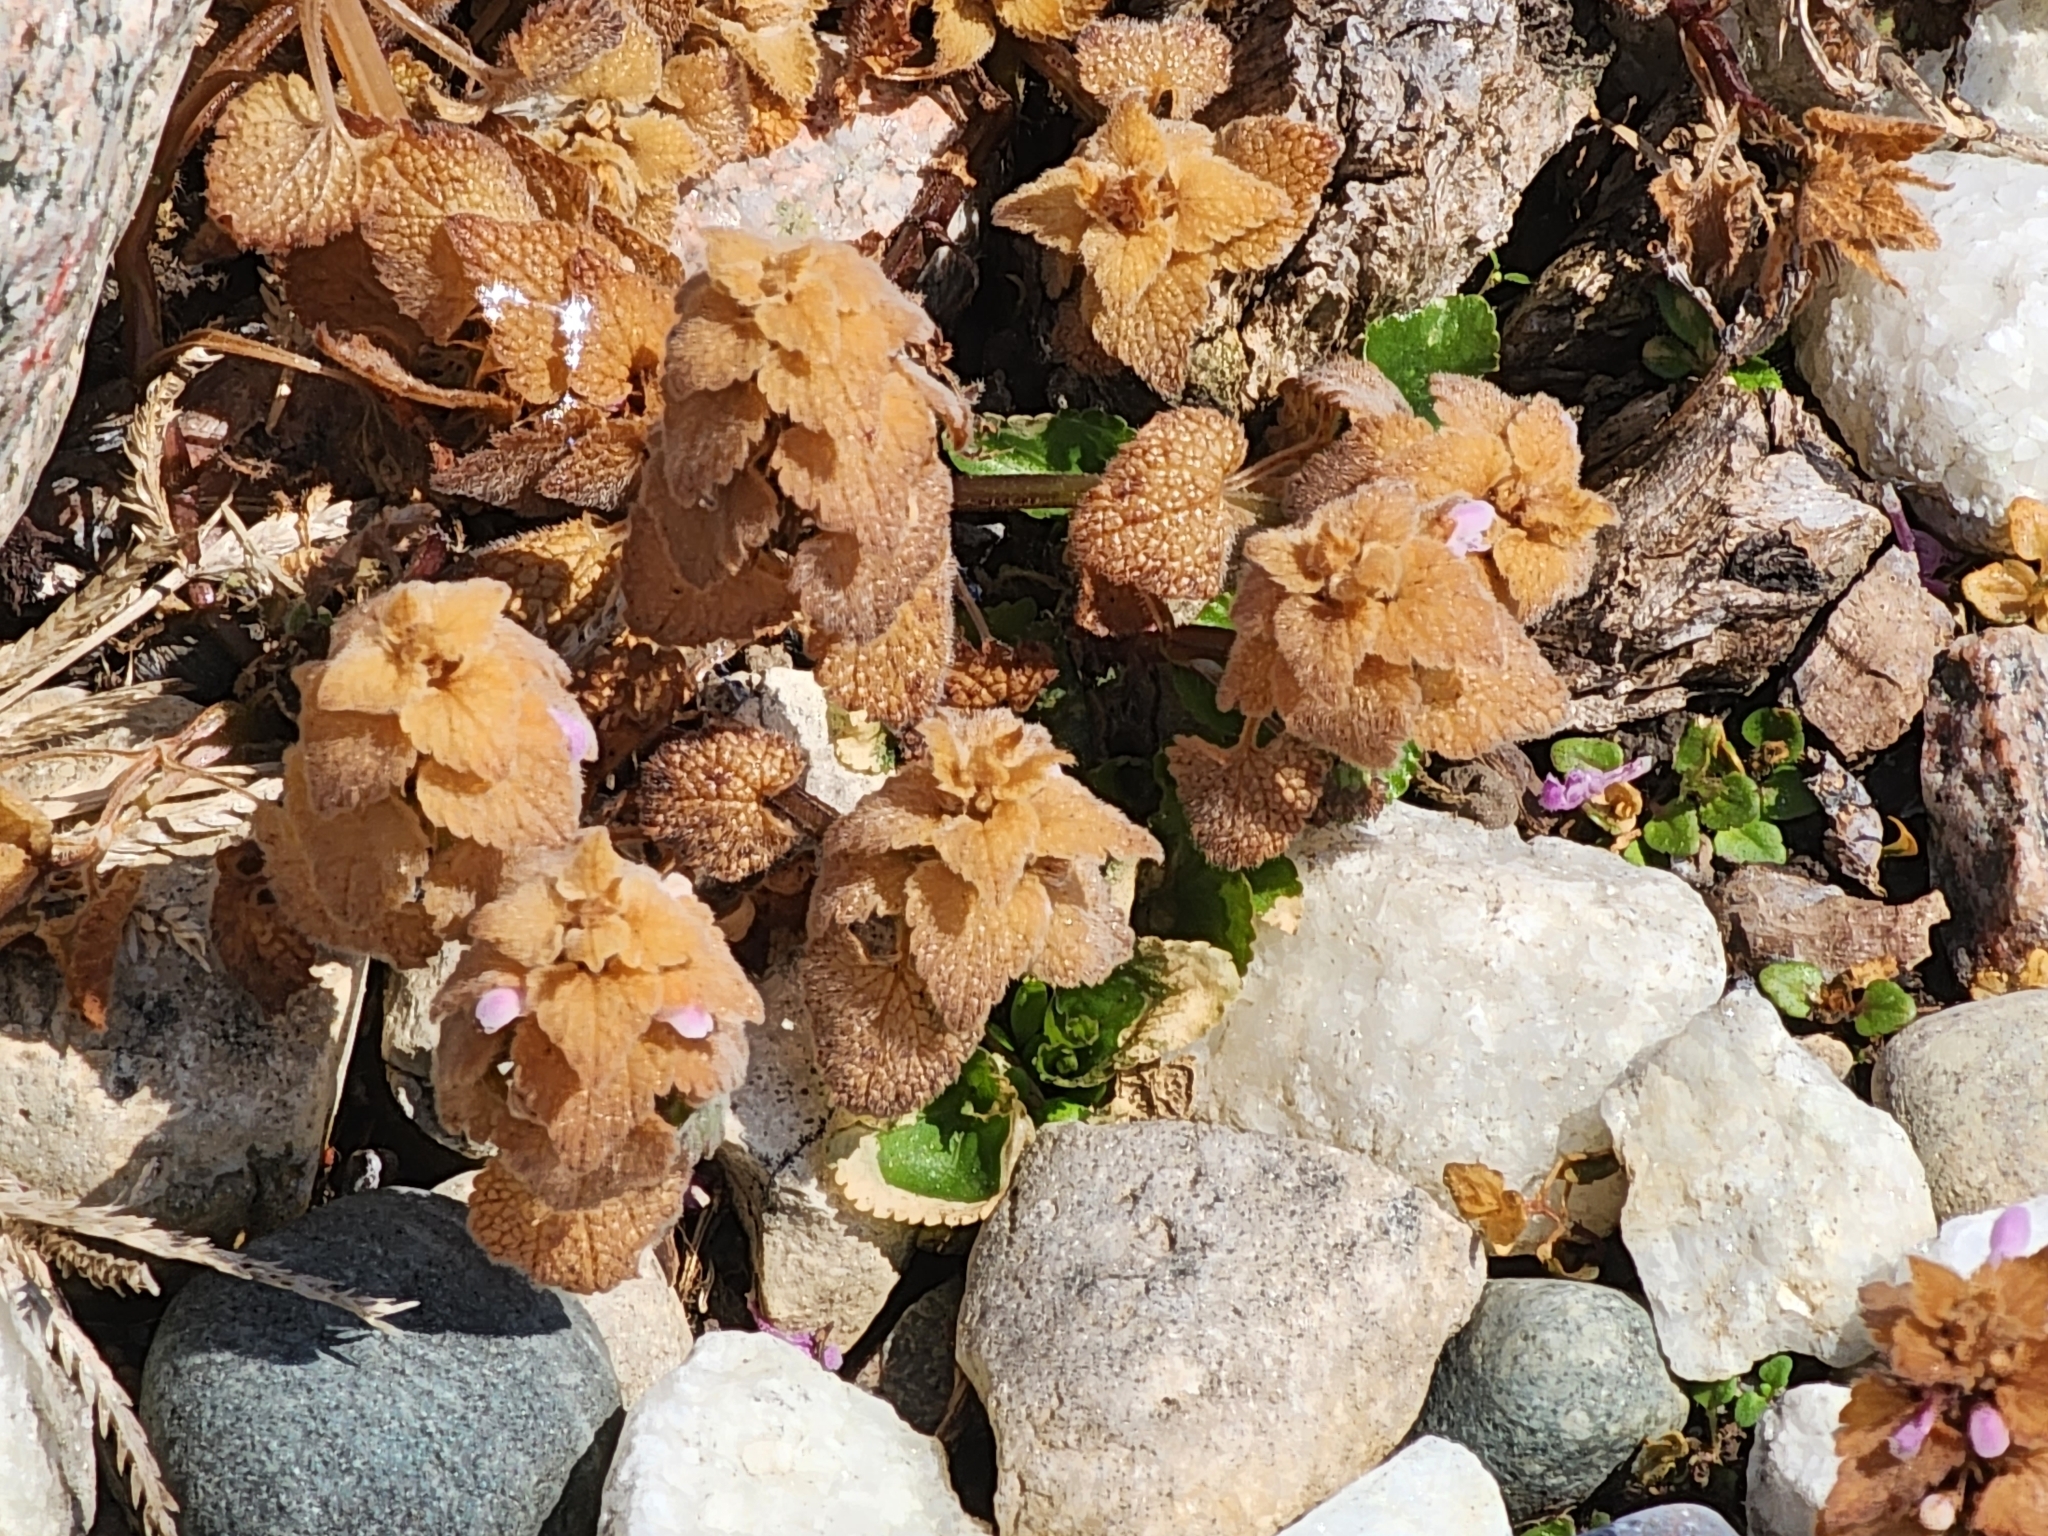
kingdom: Plantae
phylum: Tracheophyta
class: Magnoliopsida
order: Lamiales
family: Lamiaceae
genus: Lamium
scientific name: Lamium purpureum
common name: Red dead-nettle
